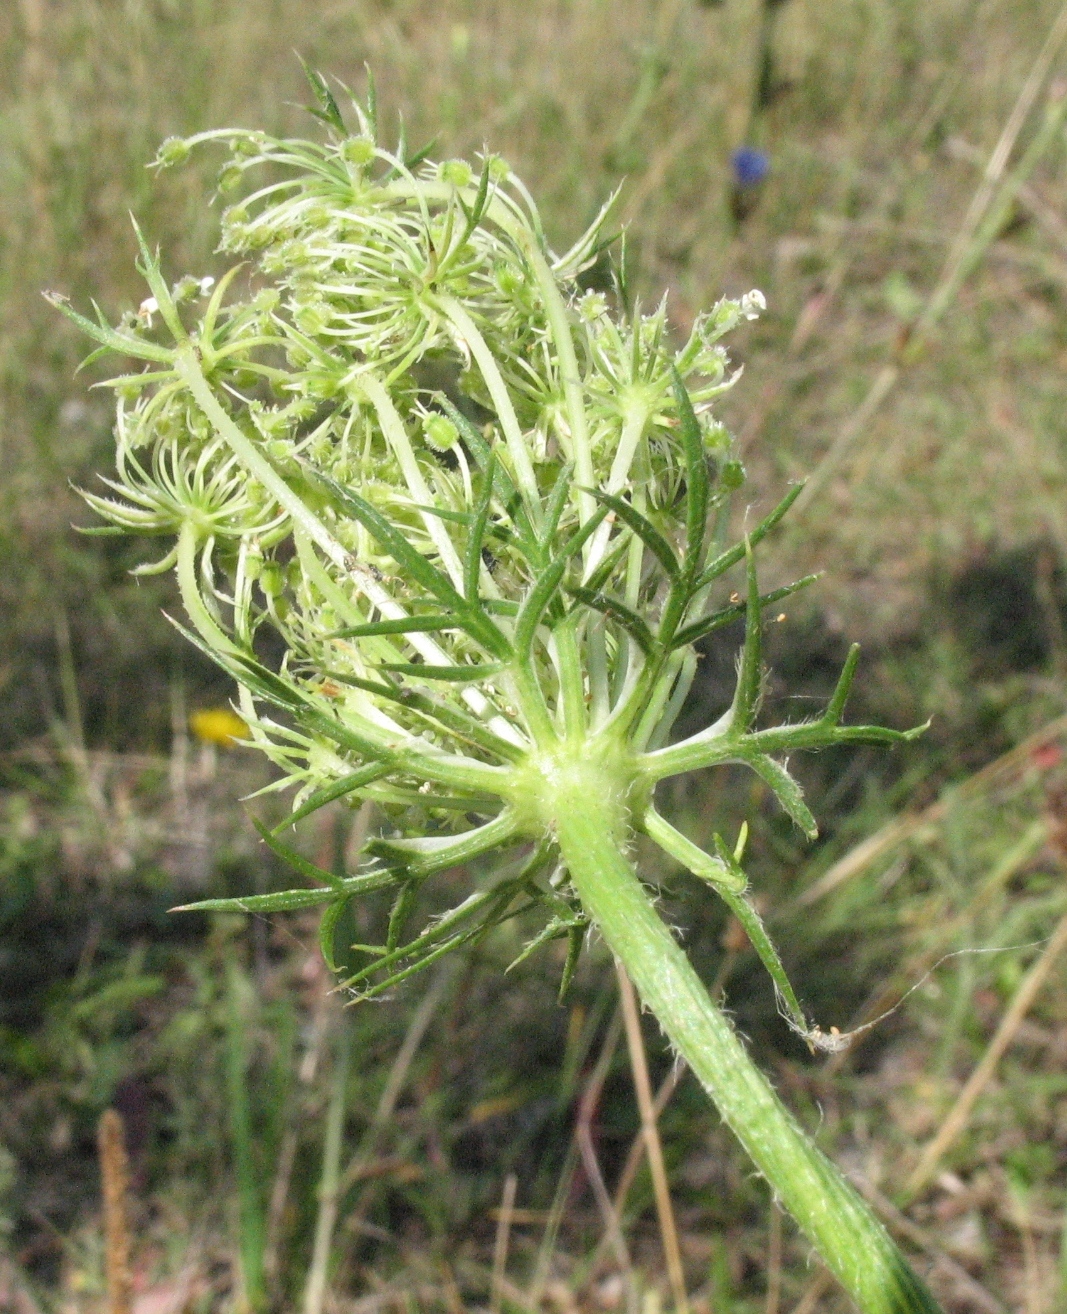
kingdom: Plantae
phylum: Tracheophyta
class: Magnoliopsida
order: Apiales
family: Apiaceae
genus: Daucus
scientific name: Daucus carota
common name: Wild carrot
